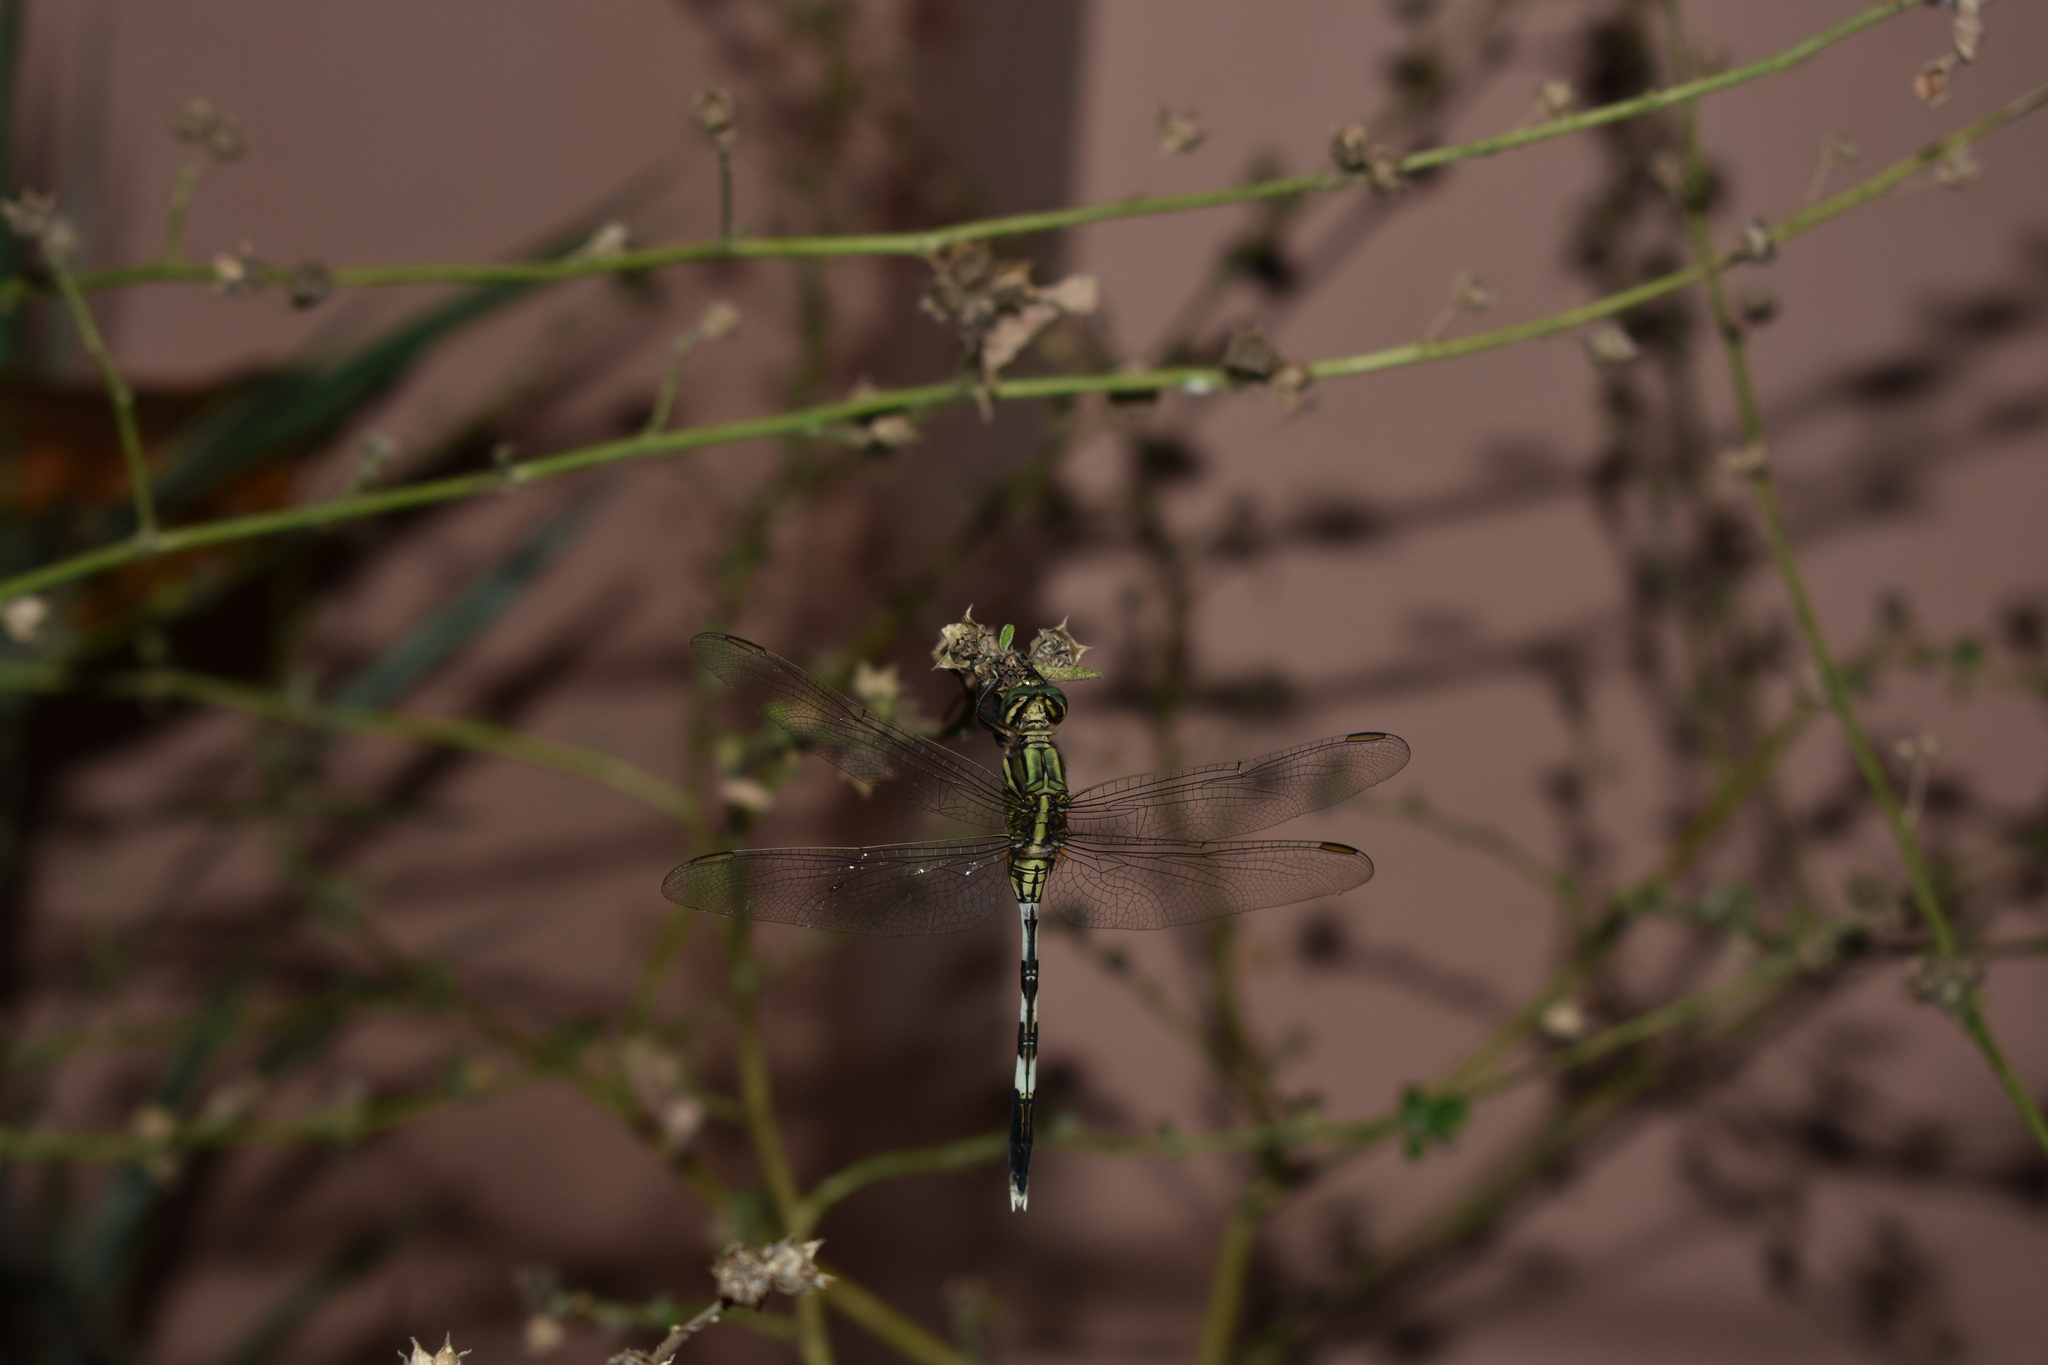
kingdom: Animalia
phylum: Arthropoda
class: Insecta
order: Odonata
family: Libellulidae
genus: Orthetrum
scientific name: Orthetrum sabina
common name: Slender skimmer
